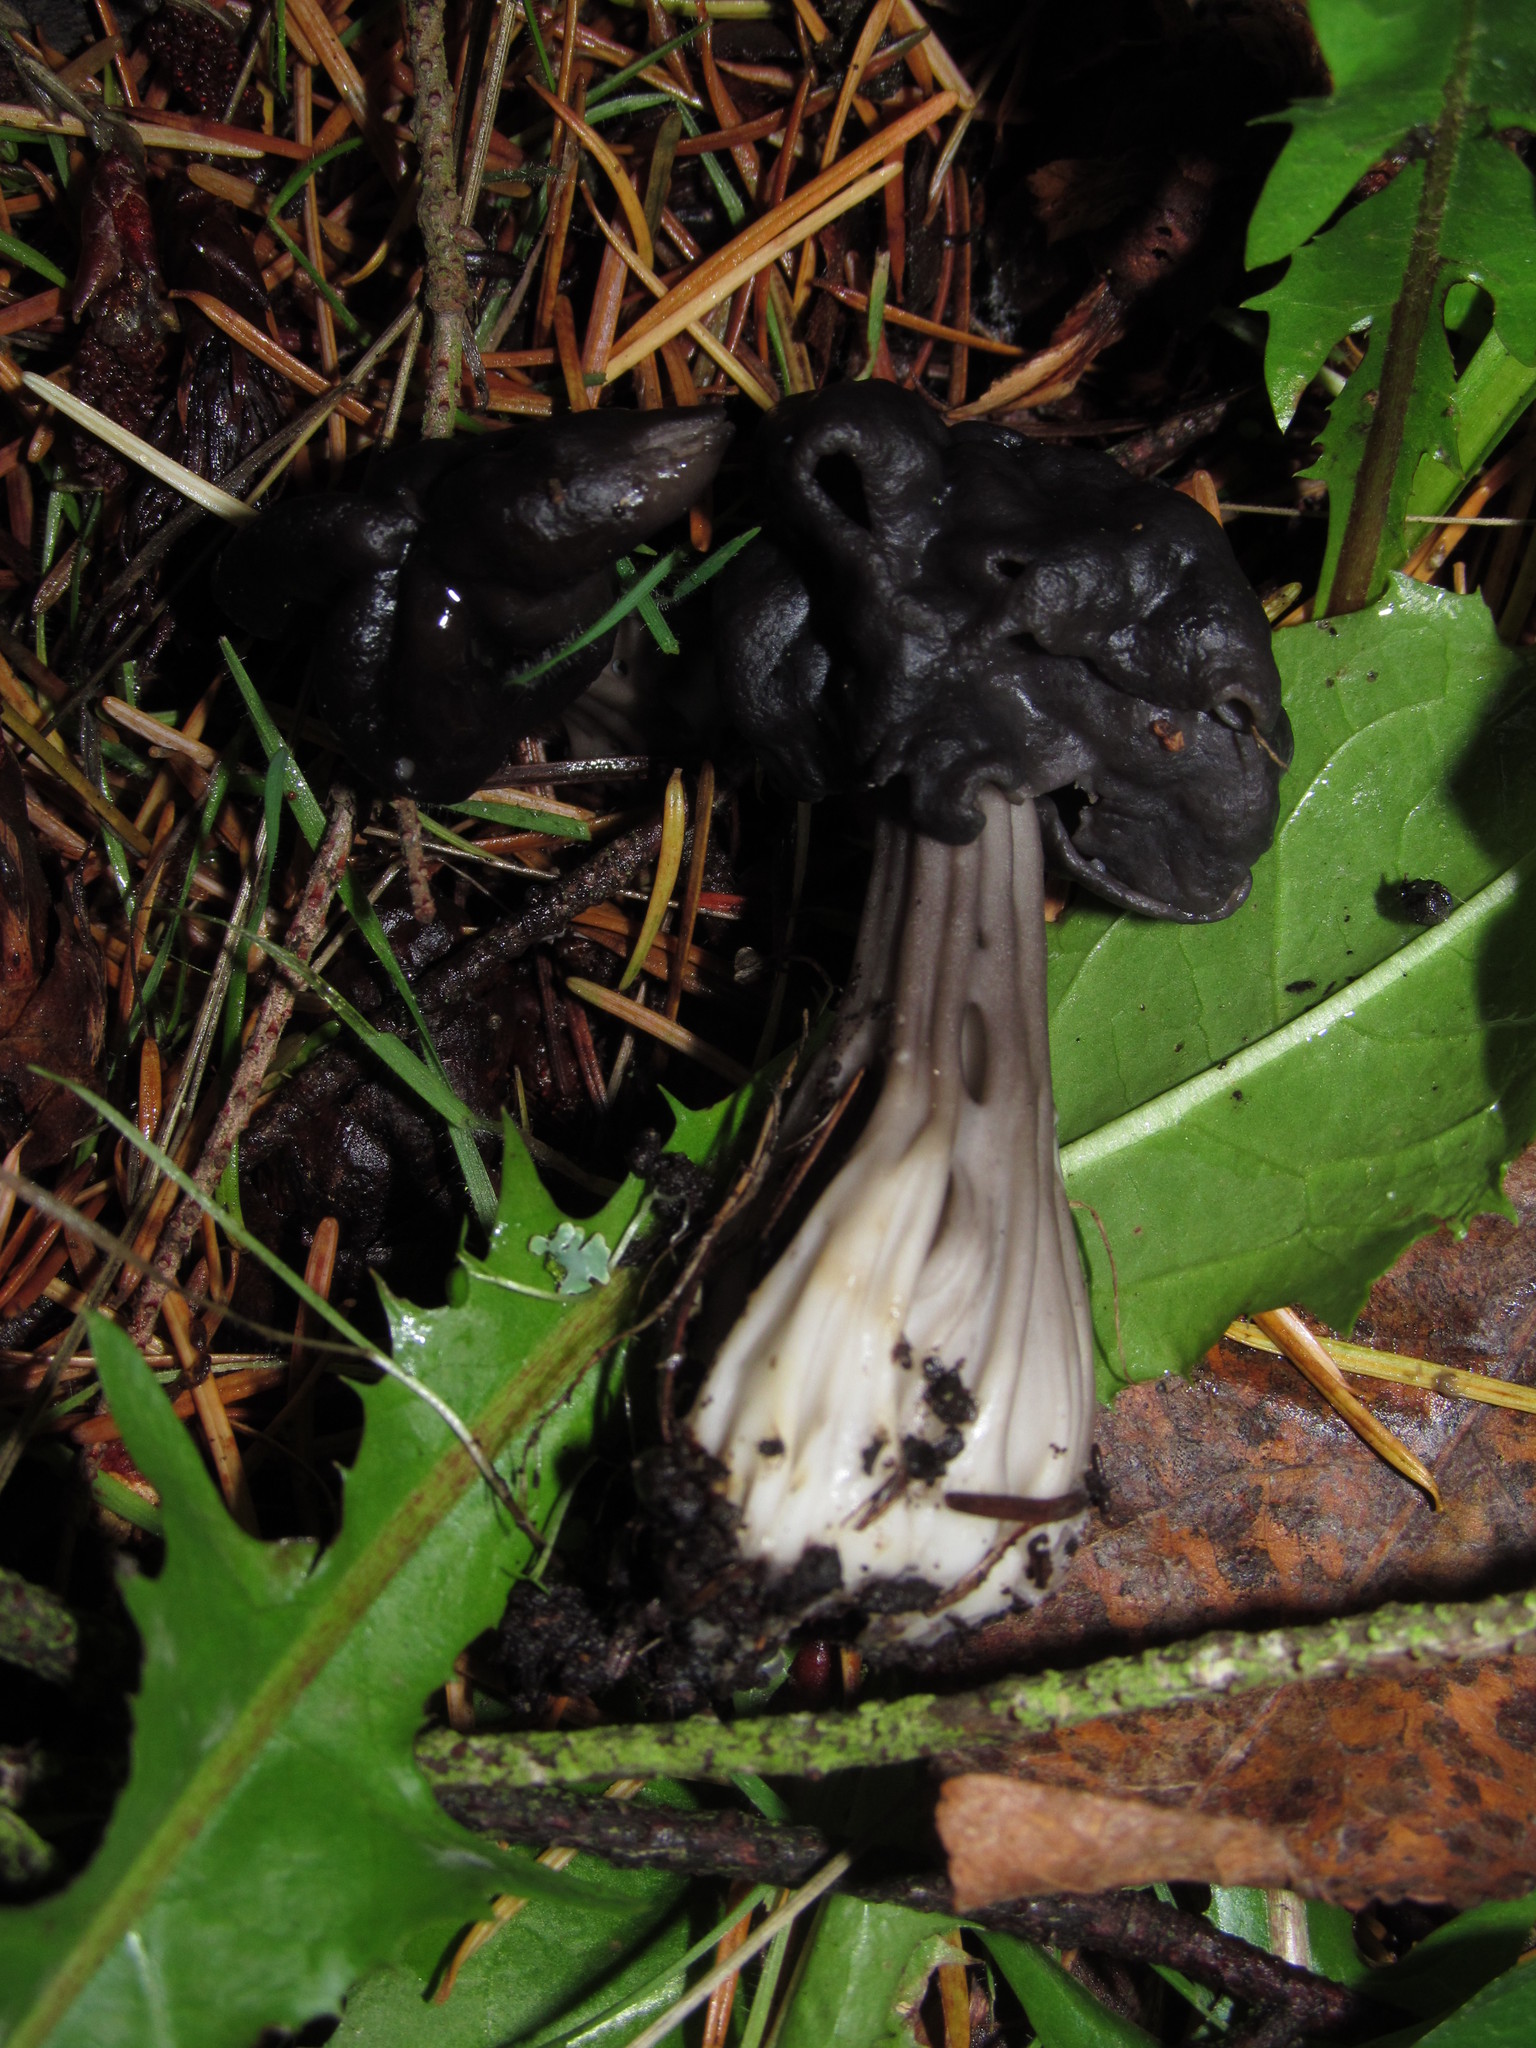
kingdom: Fungi
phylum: Ascomycota
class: Pezizomycetes
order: Pezizales
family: Helvellaceae
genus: Helvella
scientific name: Helvella vespertina
